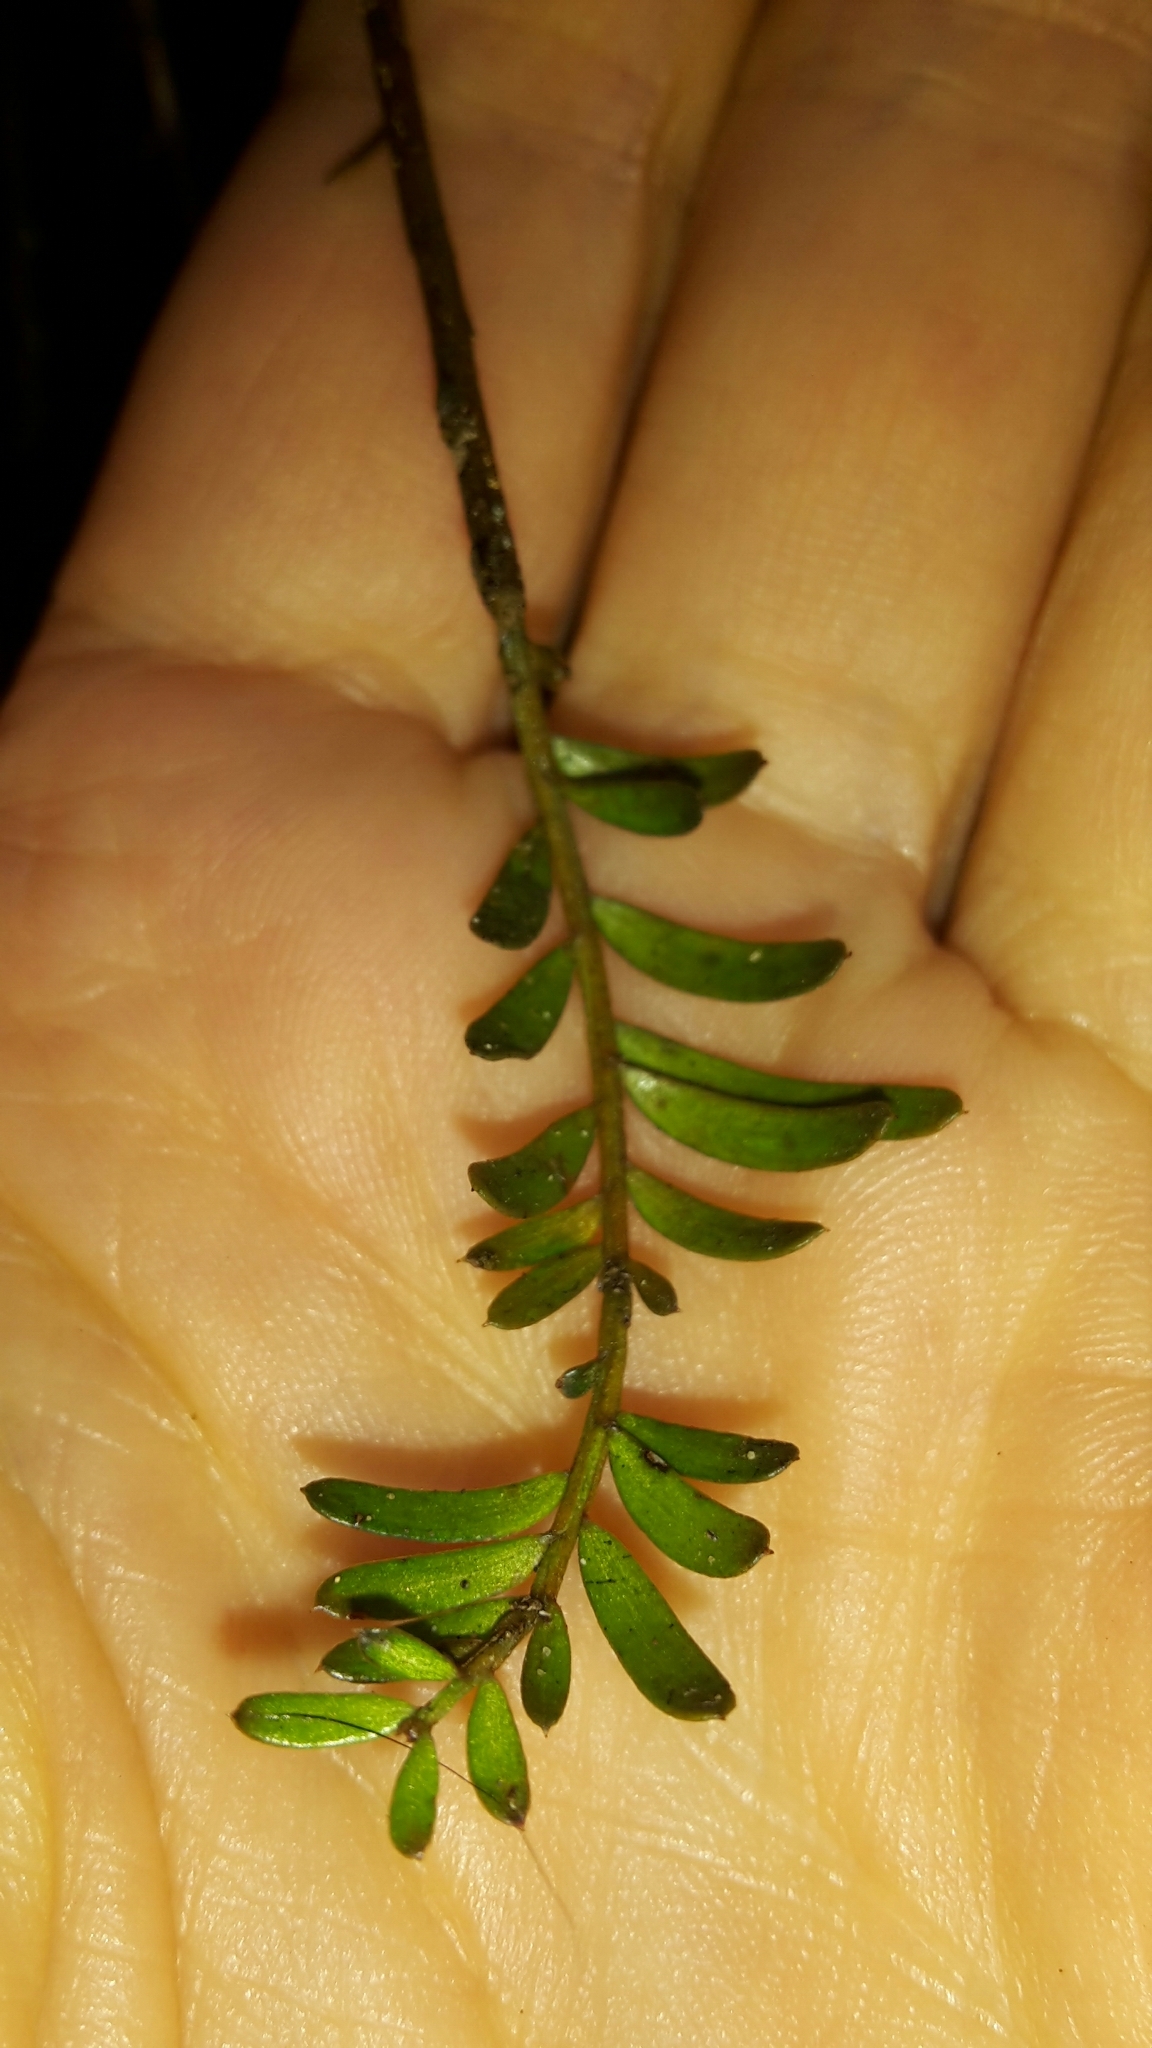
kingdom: Plantae
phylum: Tracheophyta
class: Pinopsida
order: Pinales
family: Podocarpaceae
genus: Prumnopitys
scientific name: Prumnopitys taxifolia
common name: Matai
